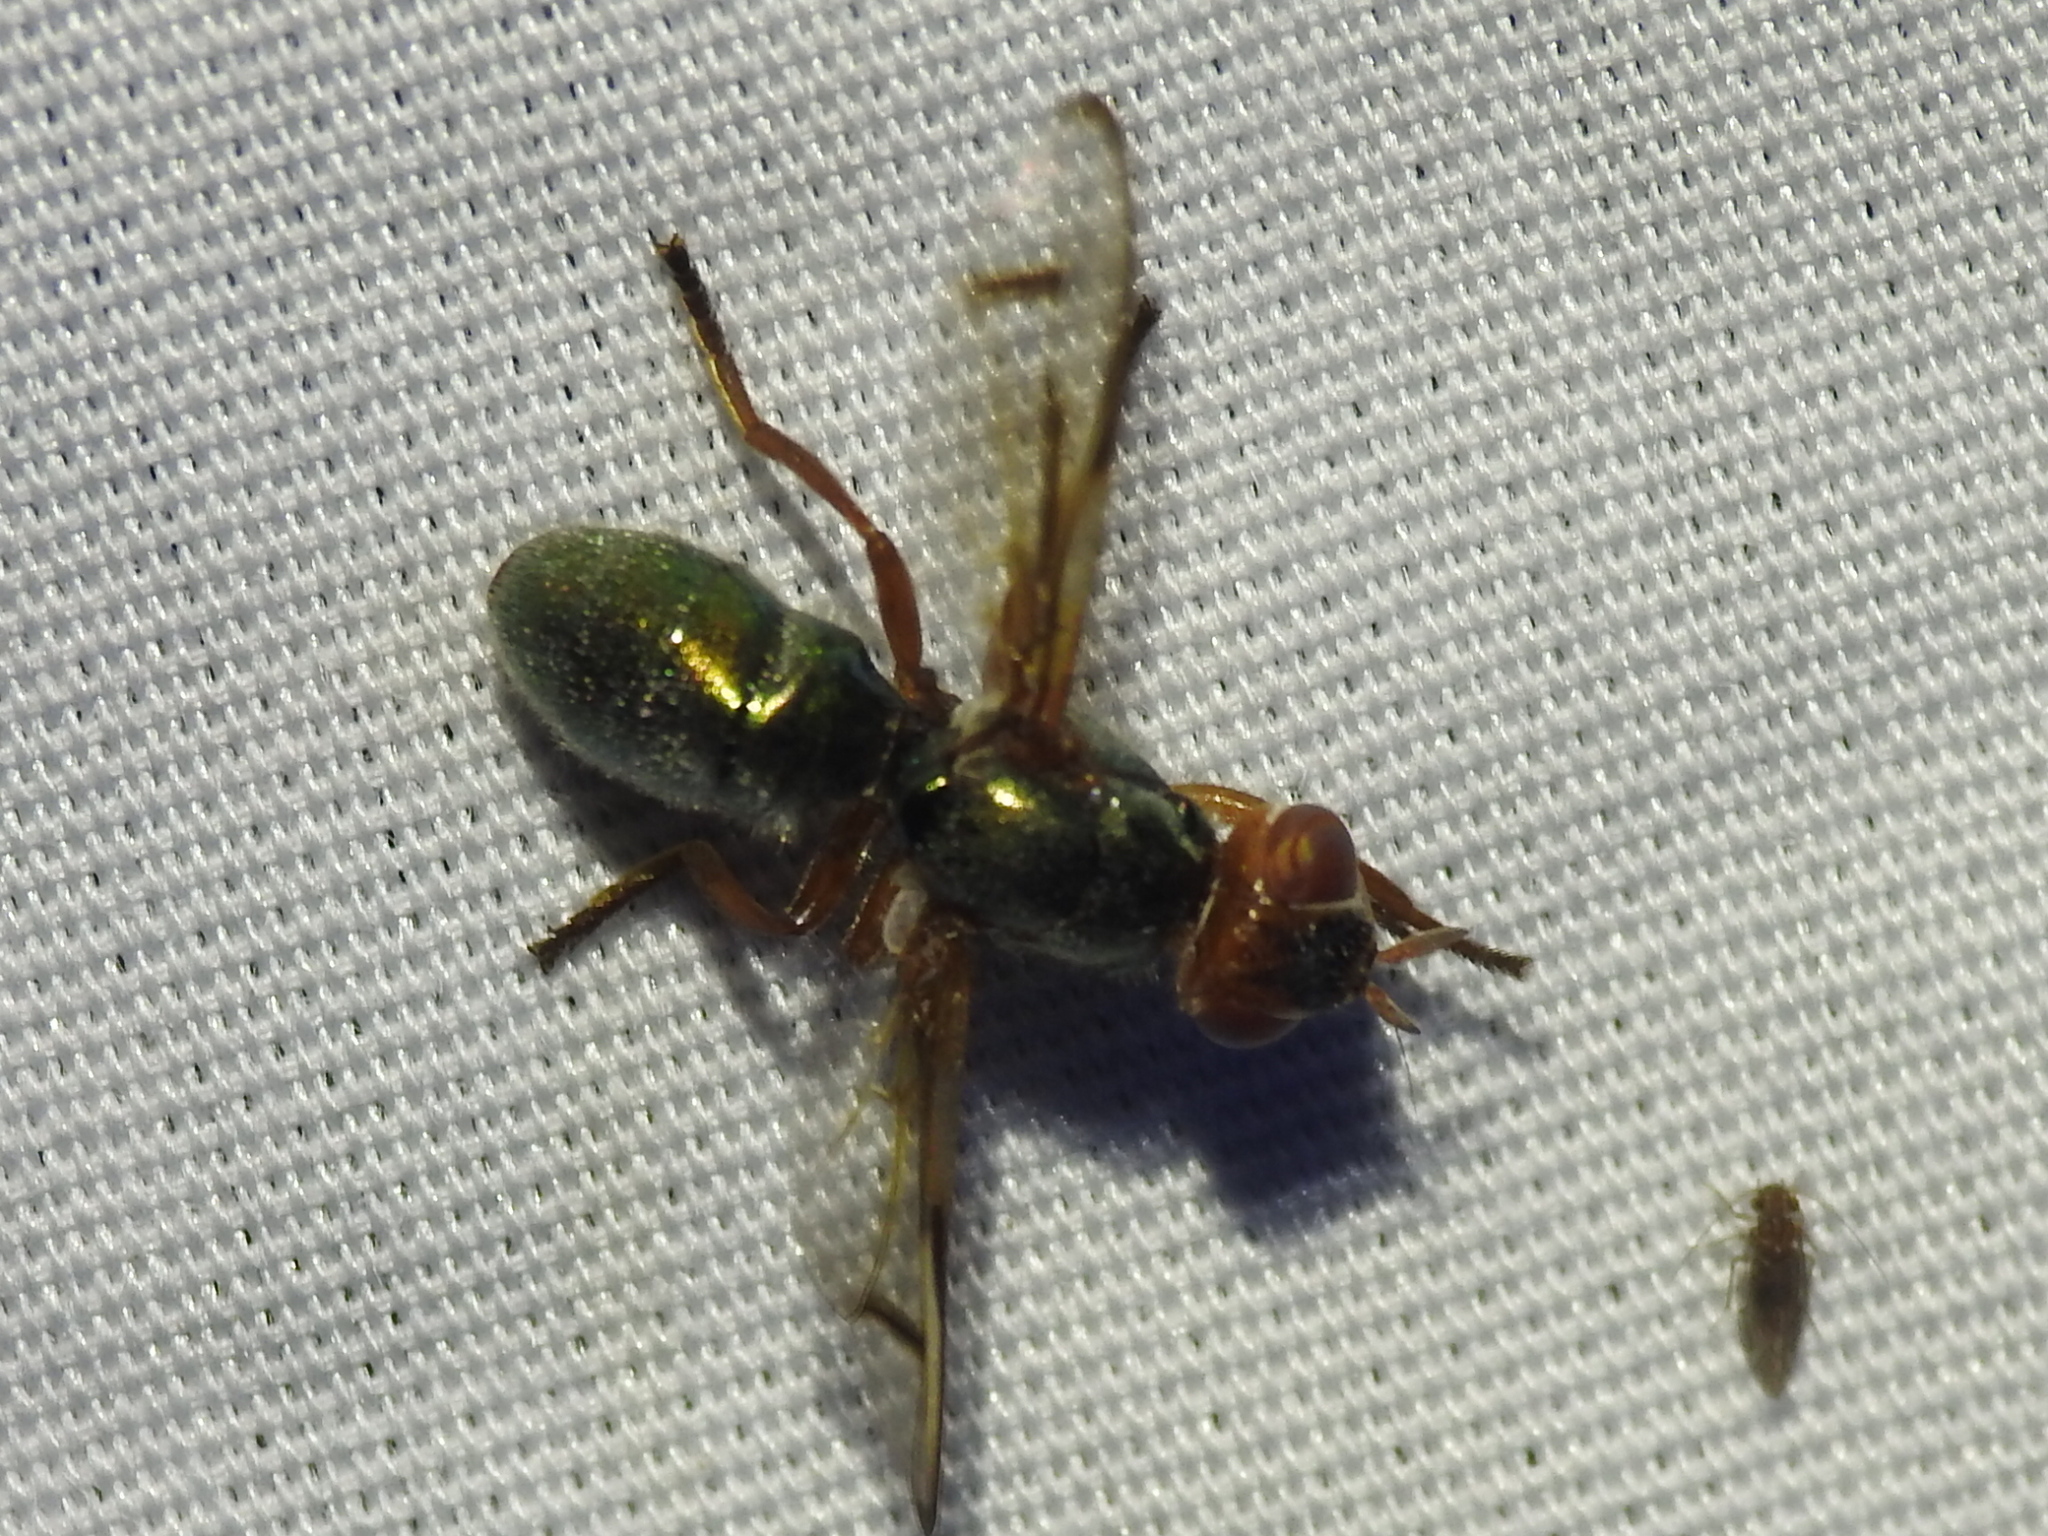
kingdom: Animalia
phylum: Arthropoda
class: Insecta
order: Diptera
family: Platystomatidae
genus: Senopterina
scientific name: Senopterina caerulescens
